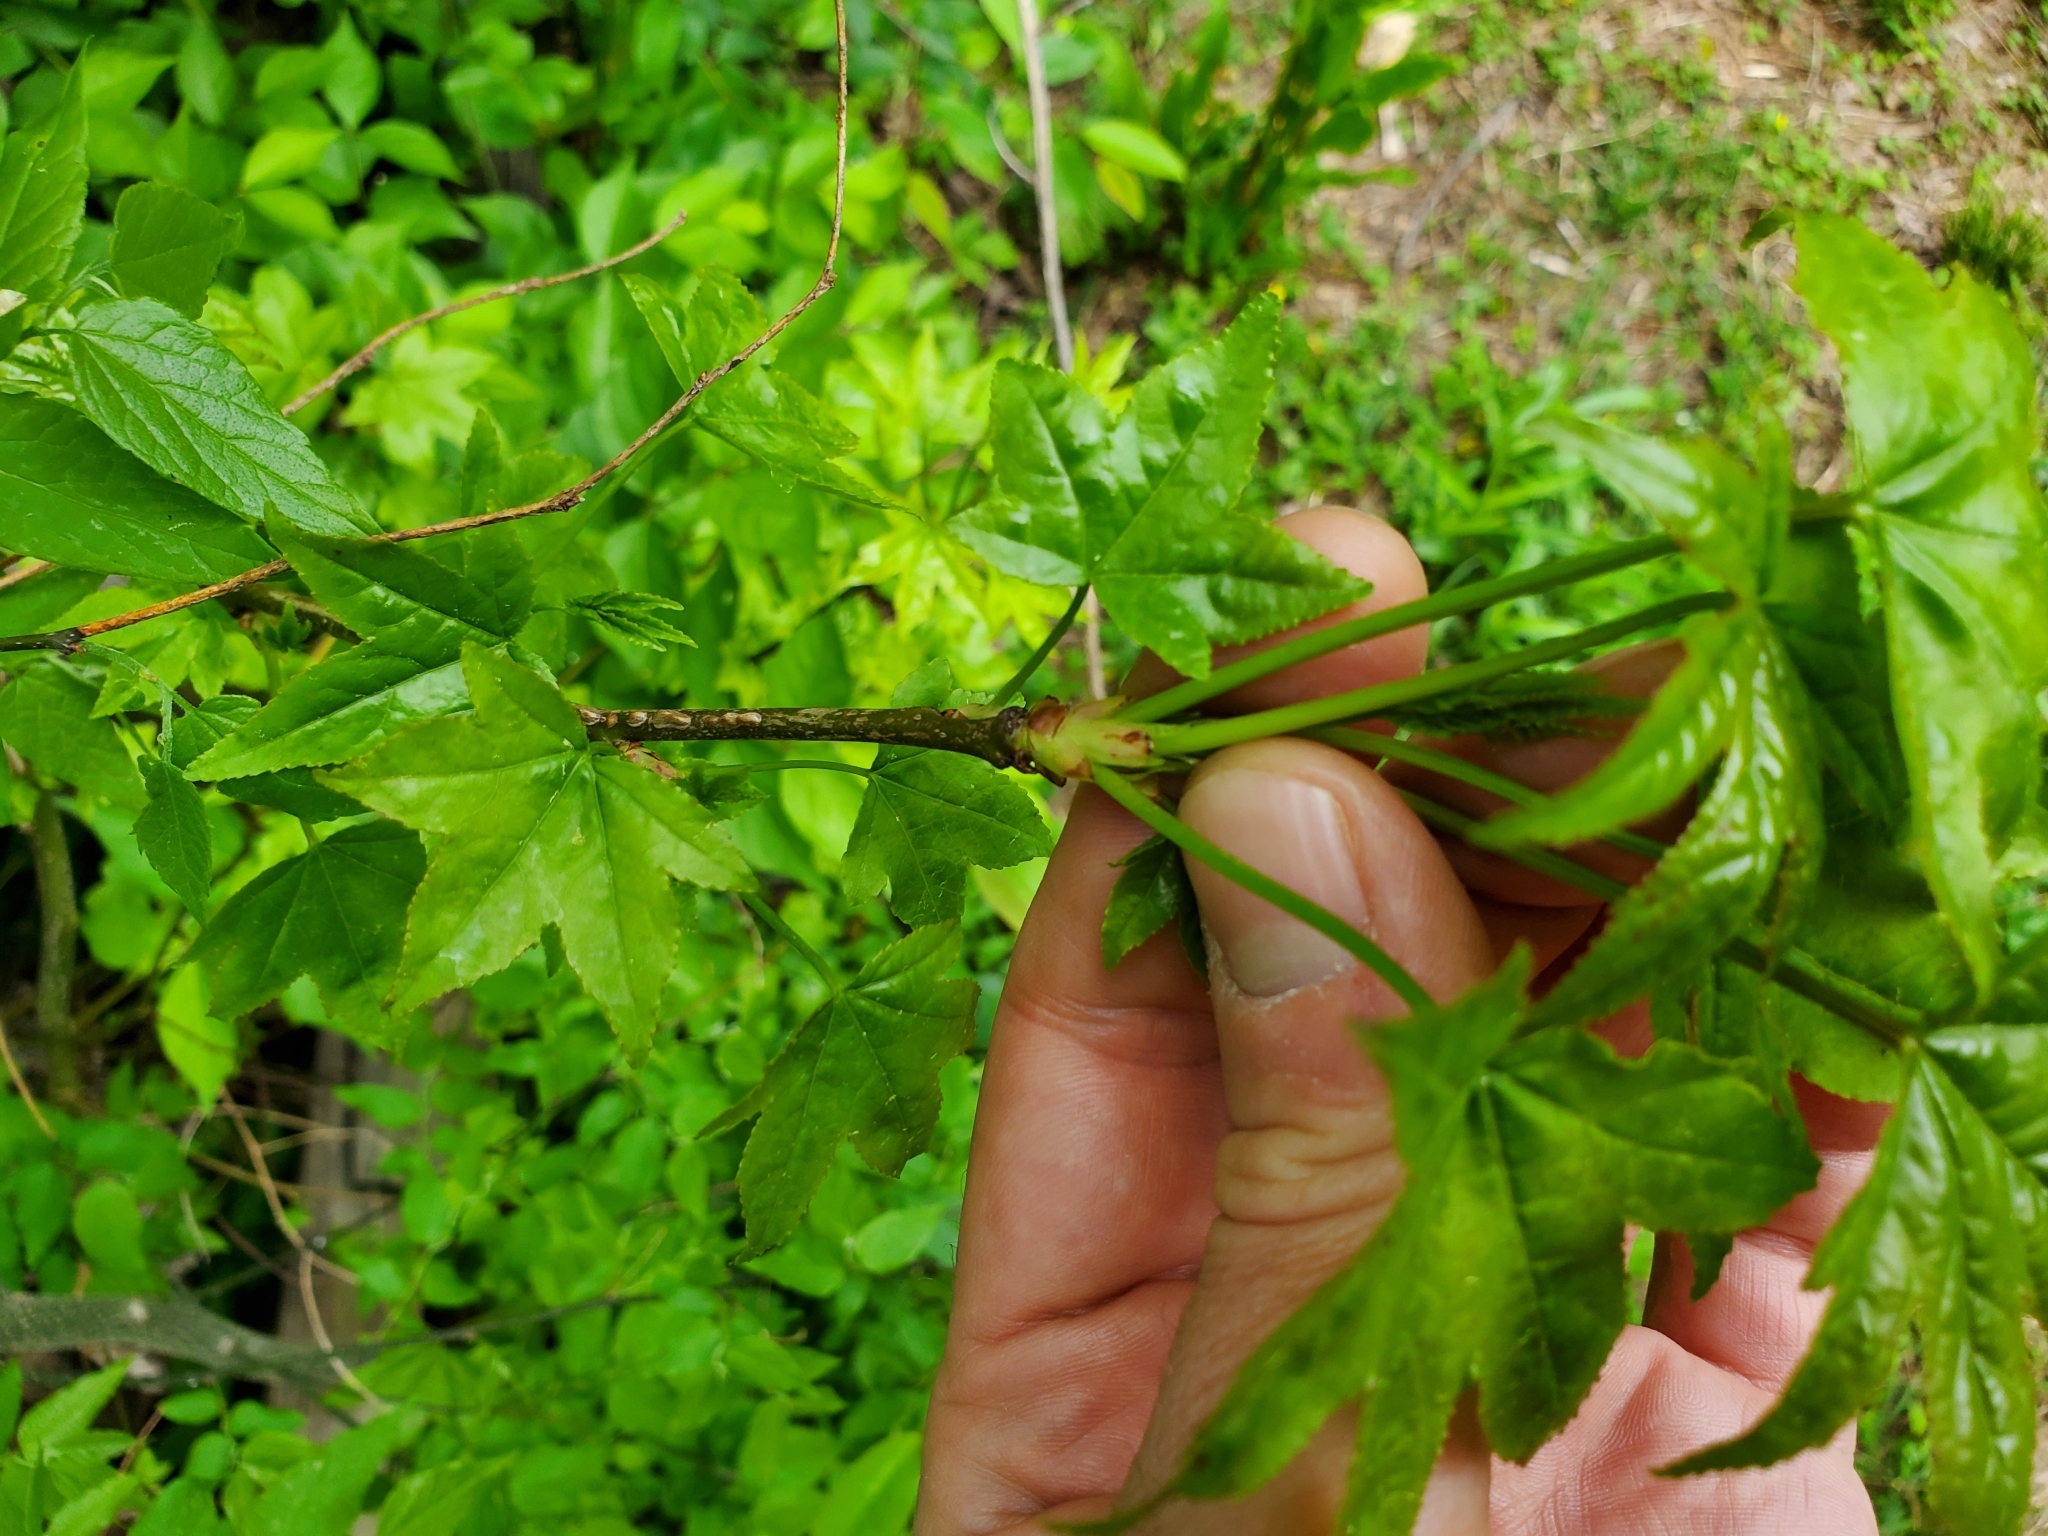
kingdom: Plantae
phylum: Tracheophyta
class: Magnoliopsida
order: Saxifragales
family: Altingiaceae
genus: Liquidambar
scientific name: Liquidambar styraciflua
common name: Sweet gum
